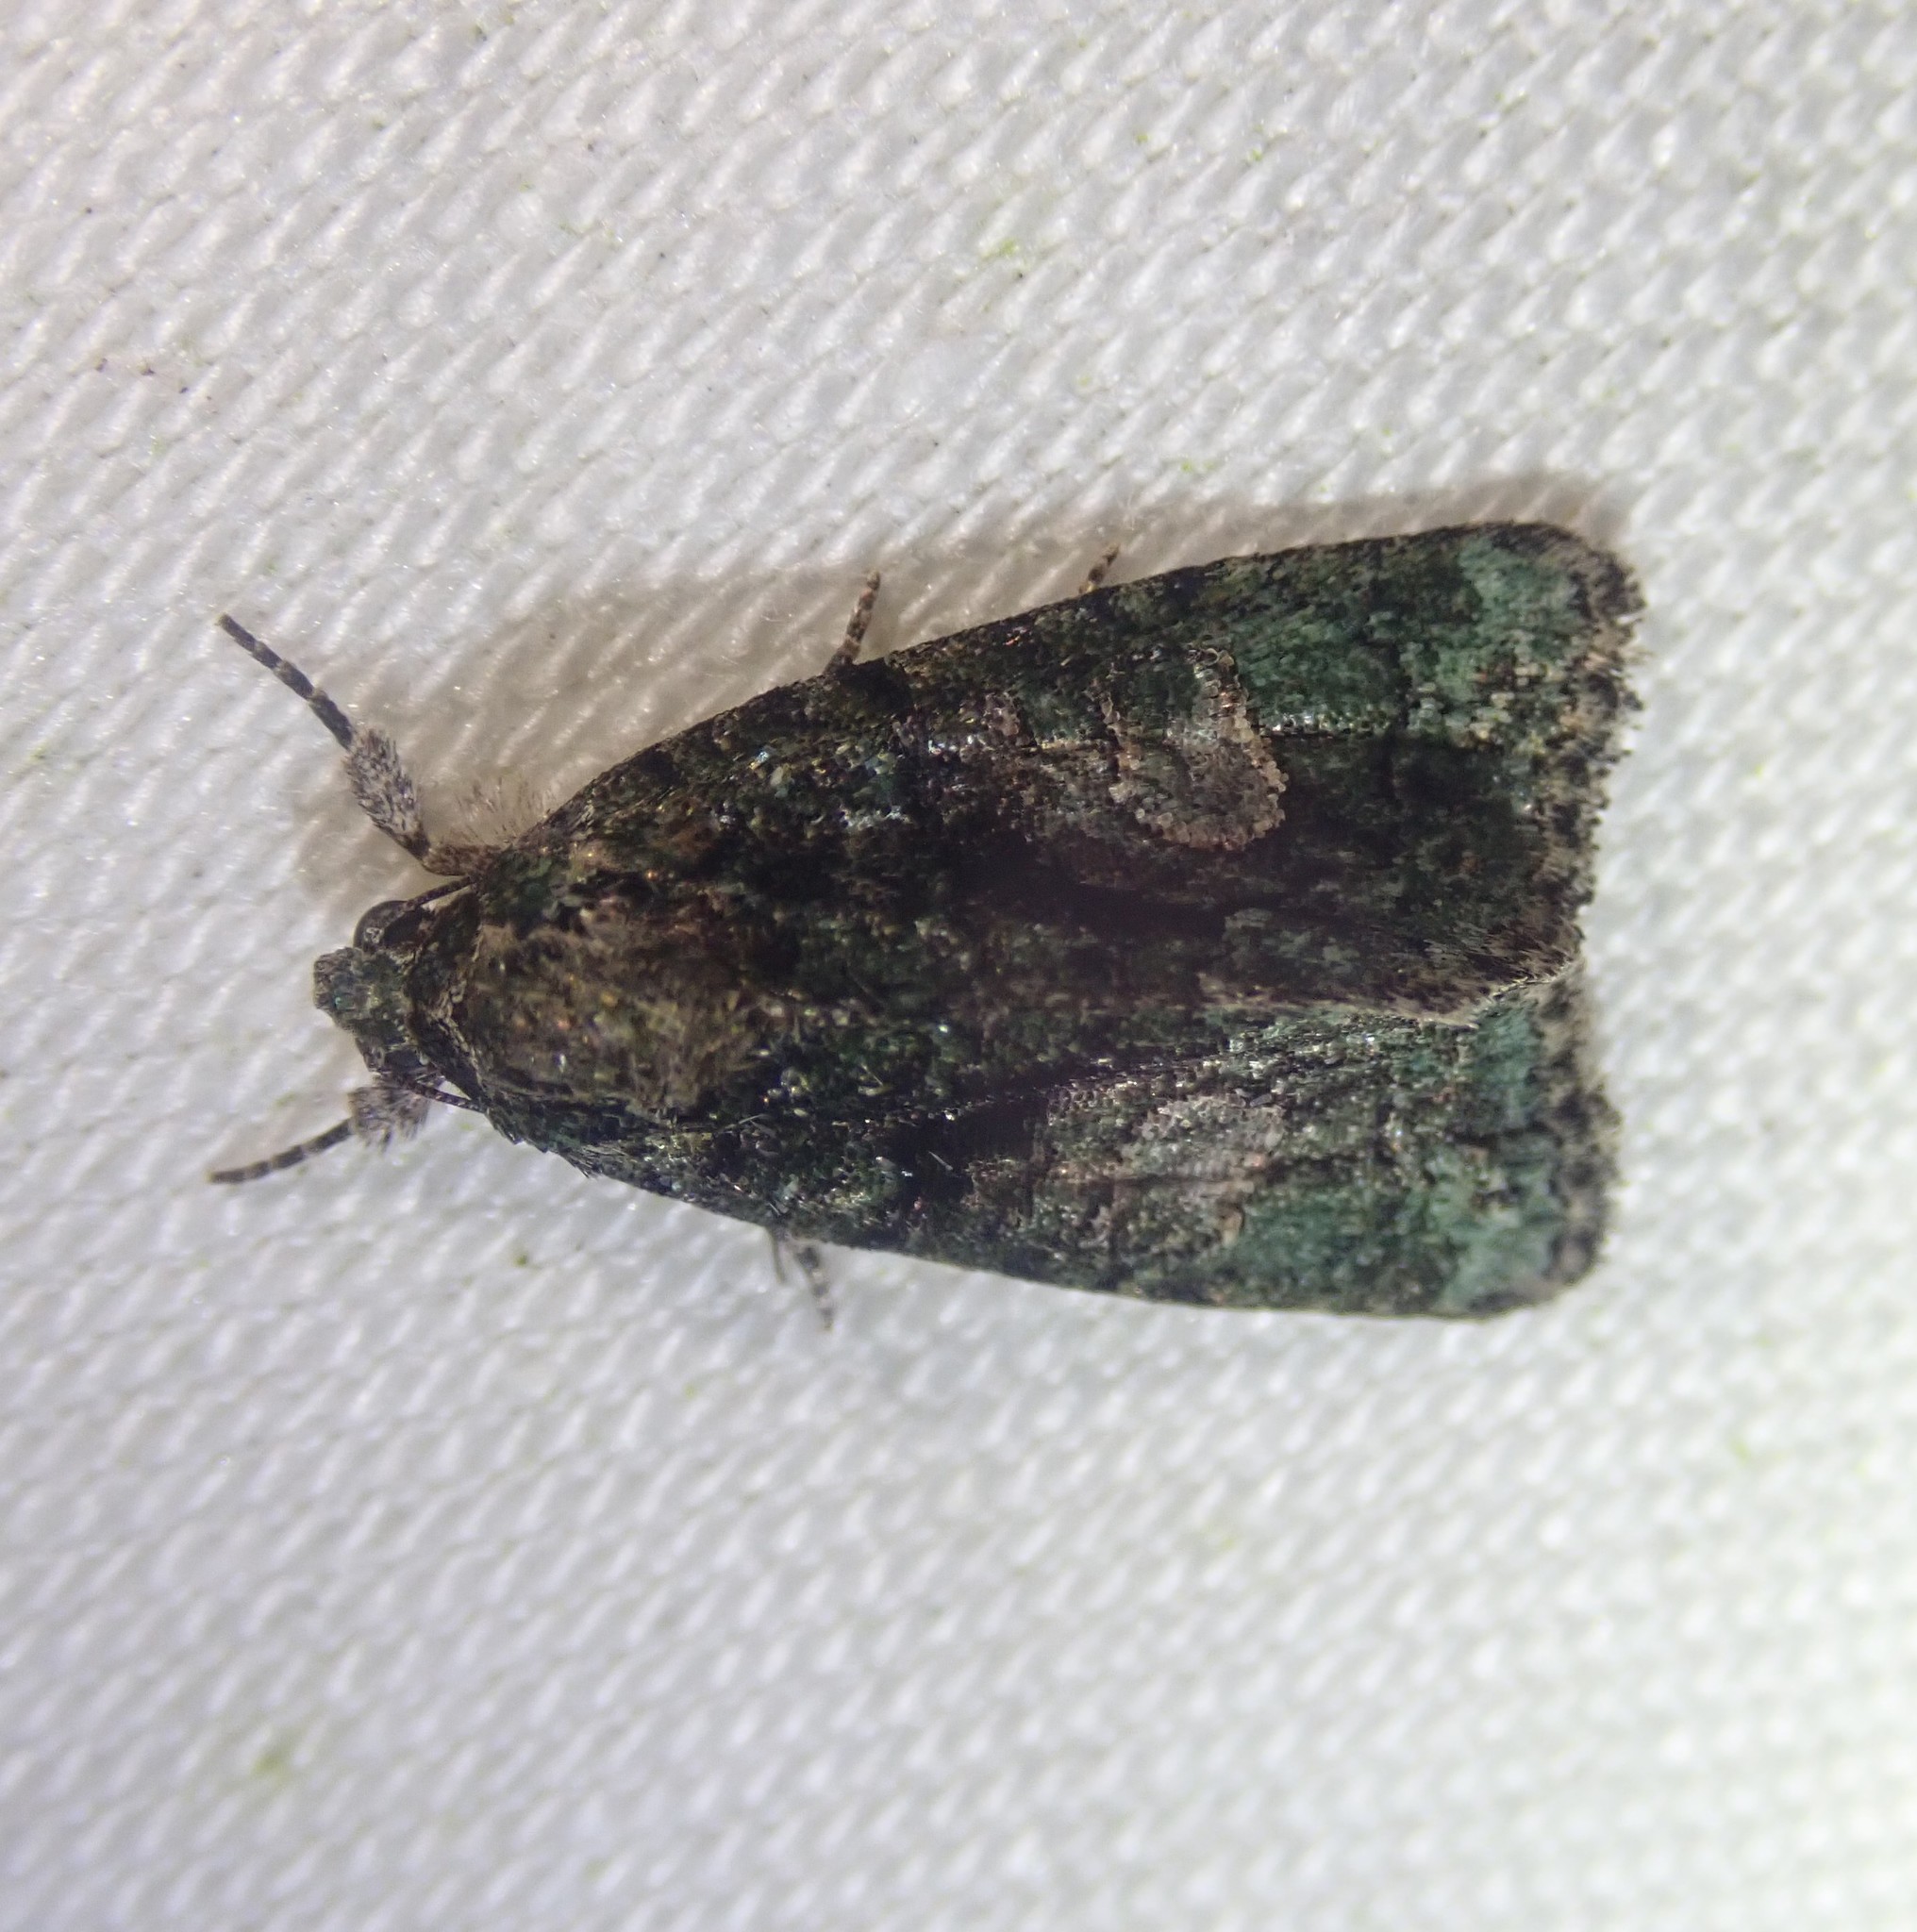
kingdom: Animalia
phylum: Arthropoda
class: Insecta
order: Lepidoptera
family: Noctuidae
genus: Cryphia
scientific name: Cryphia algae
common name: Tree-lichen beauty
